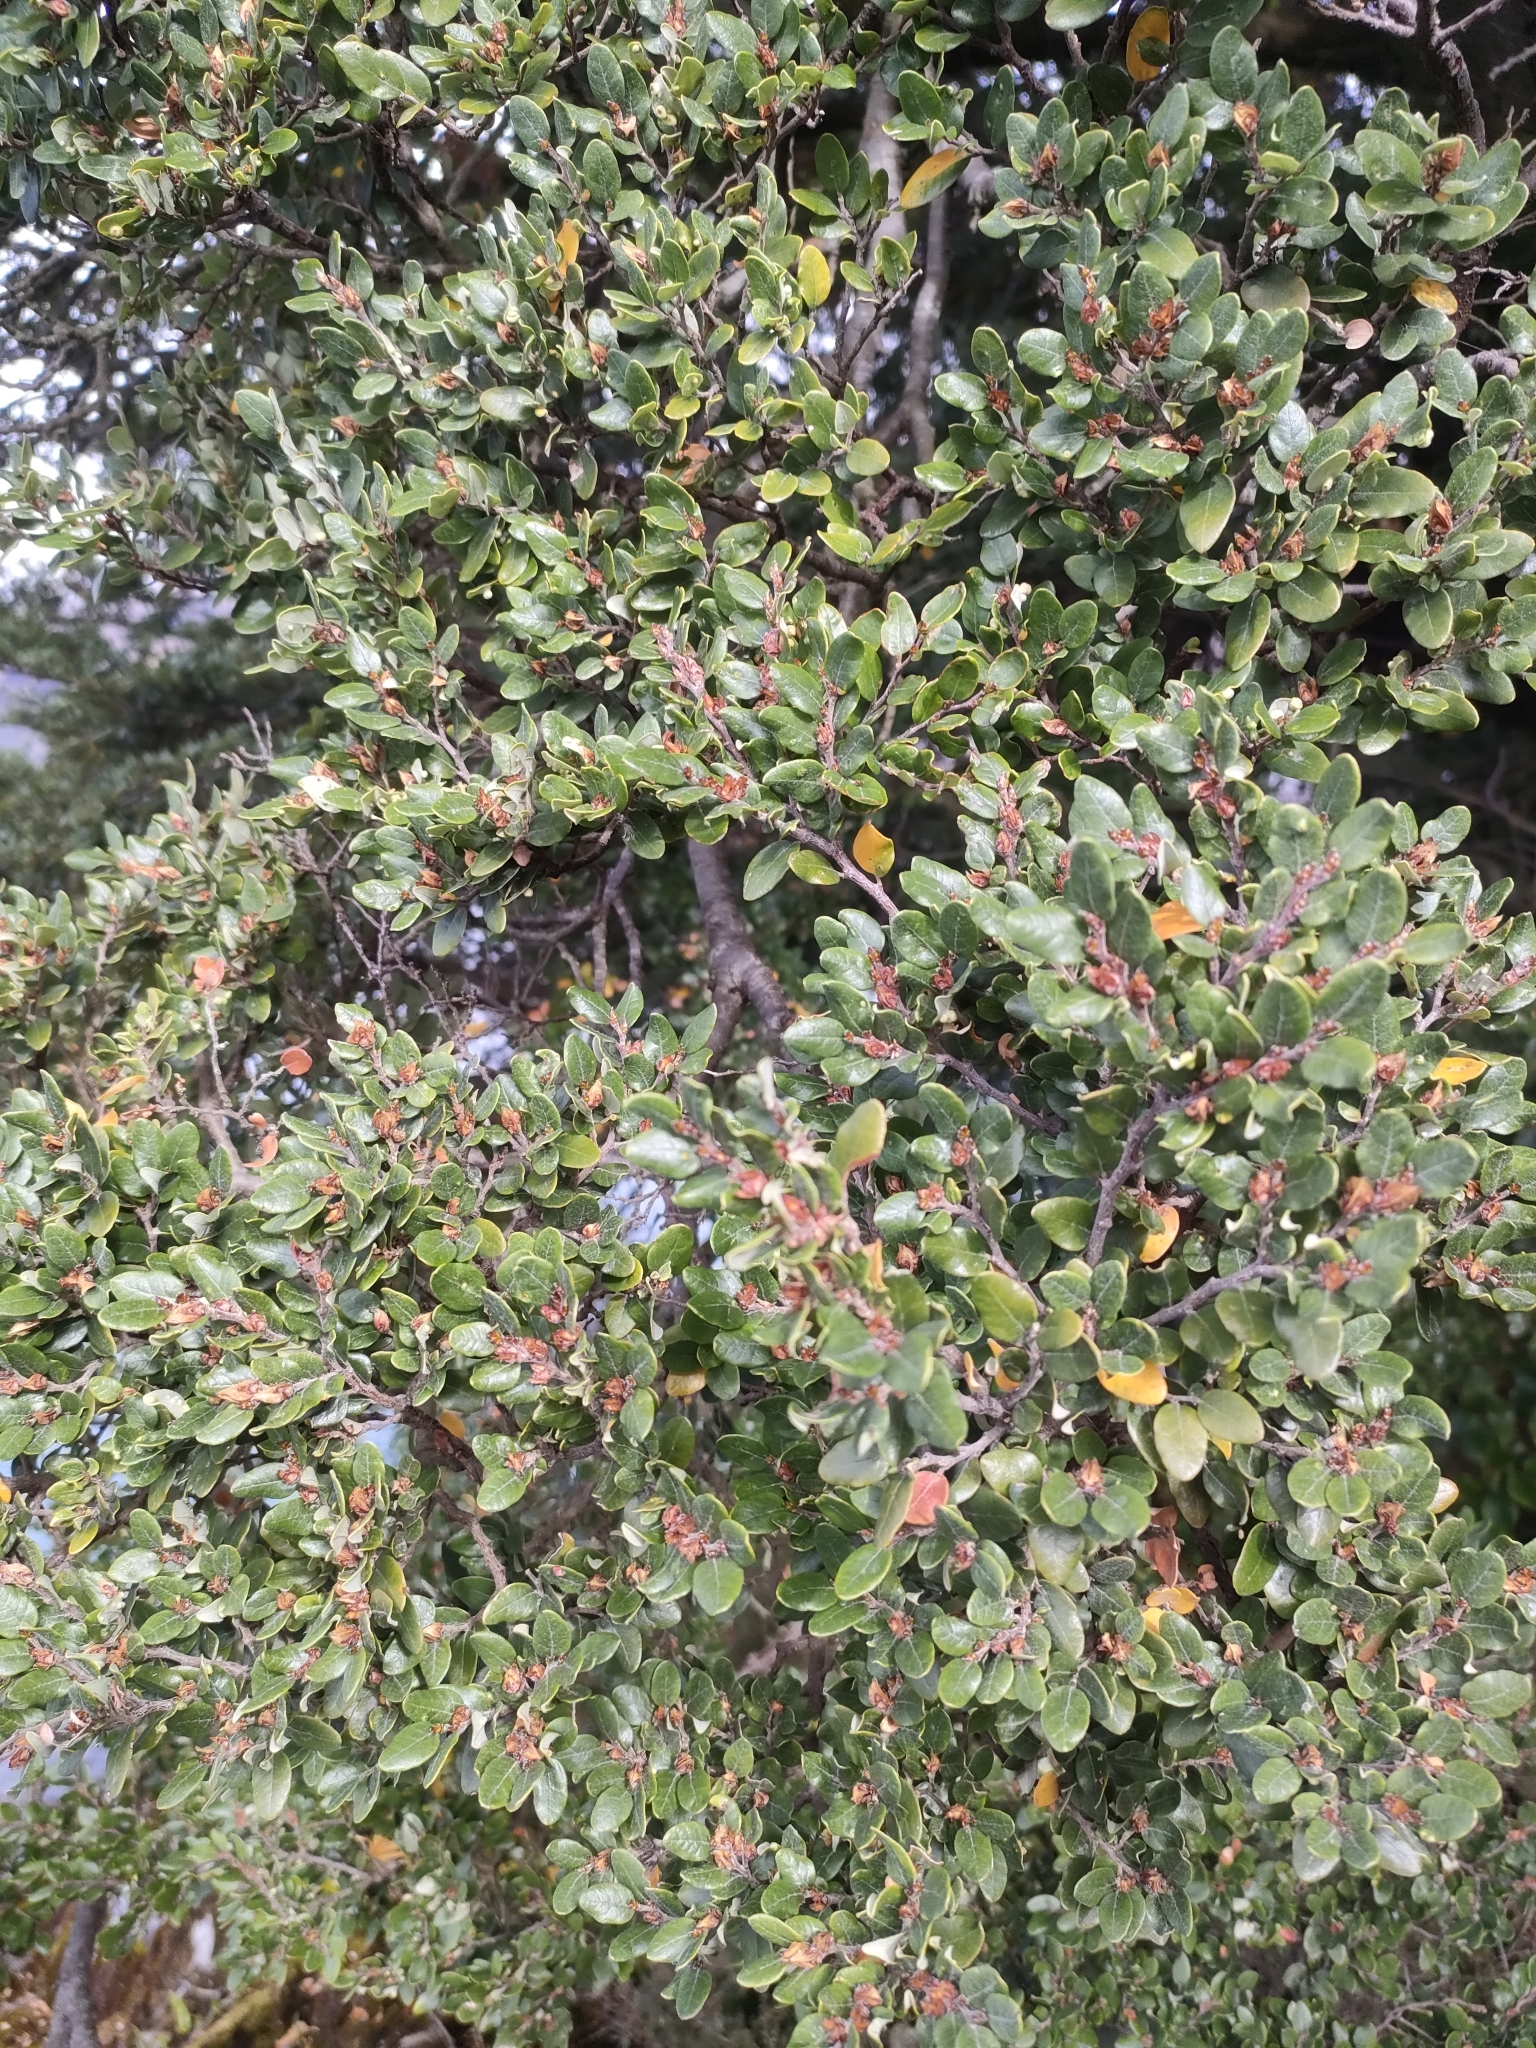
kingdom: Plantae
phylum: Tracheophyta
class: Magnoliopsida
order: Fagales
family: Nothofagaceae
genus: Nothofagus
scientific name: Nothofagus cliffortioides
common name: Mountain beech
